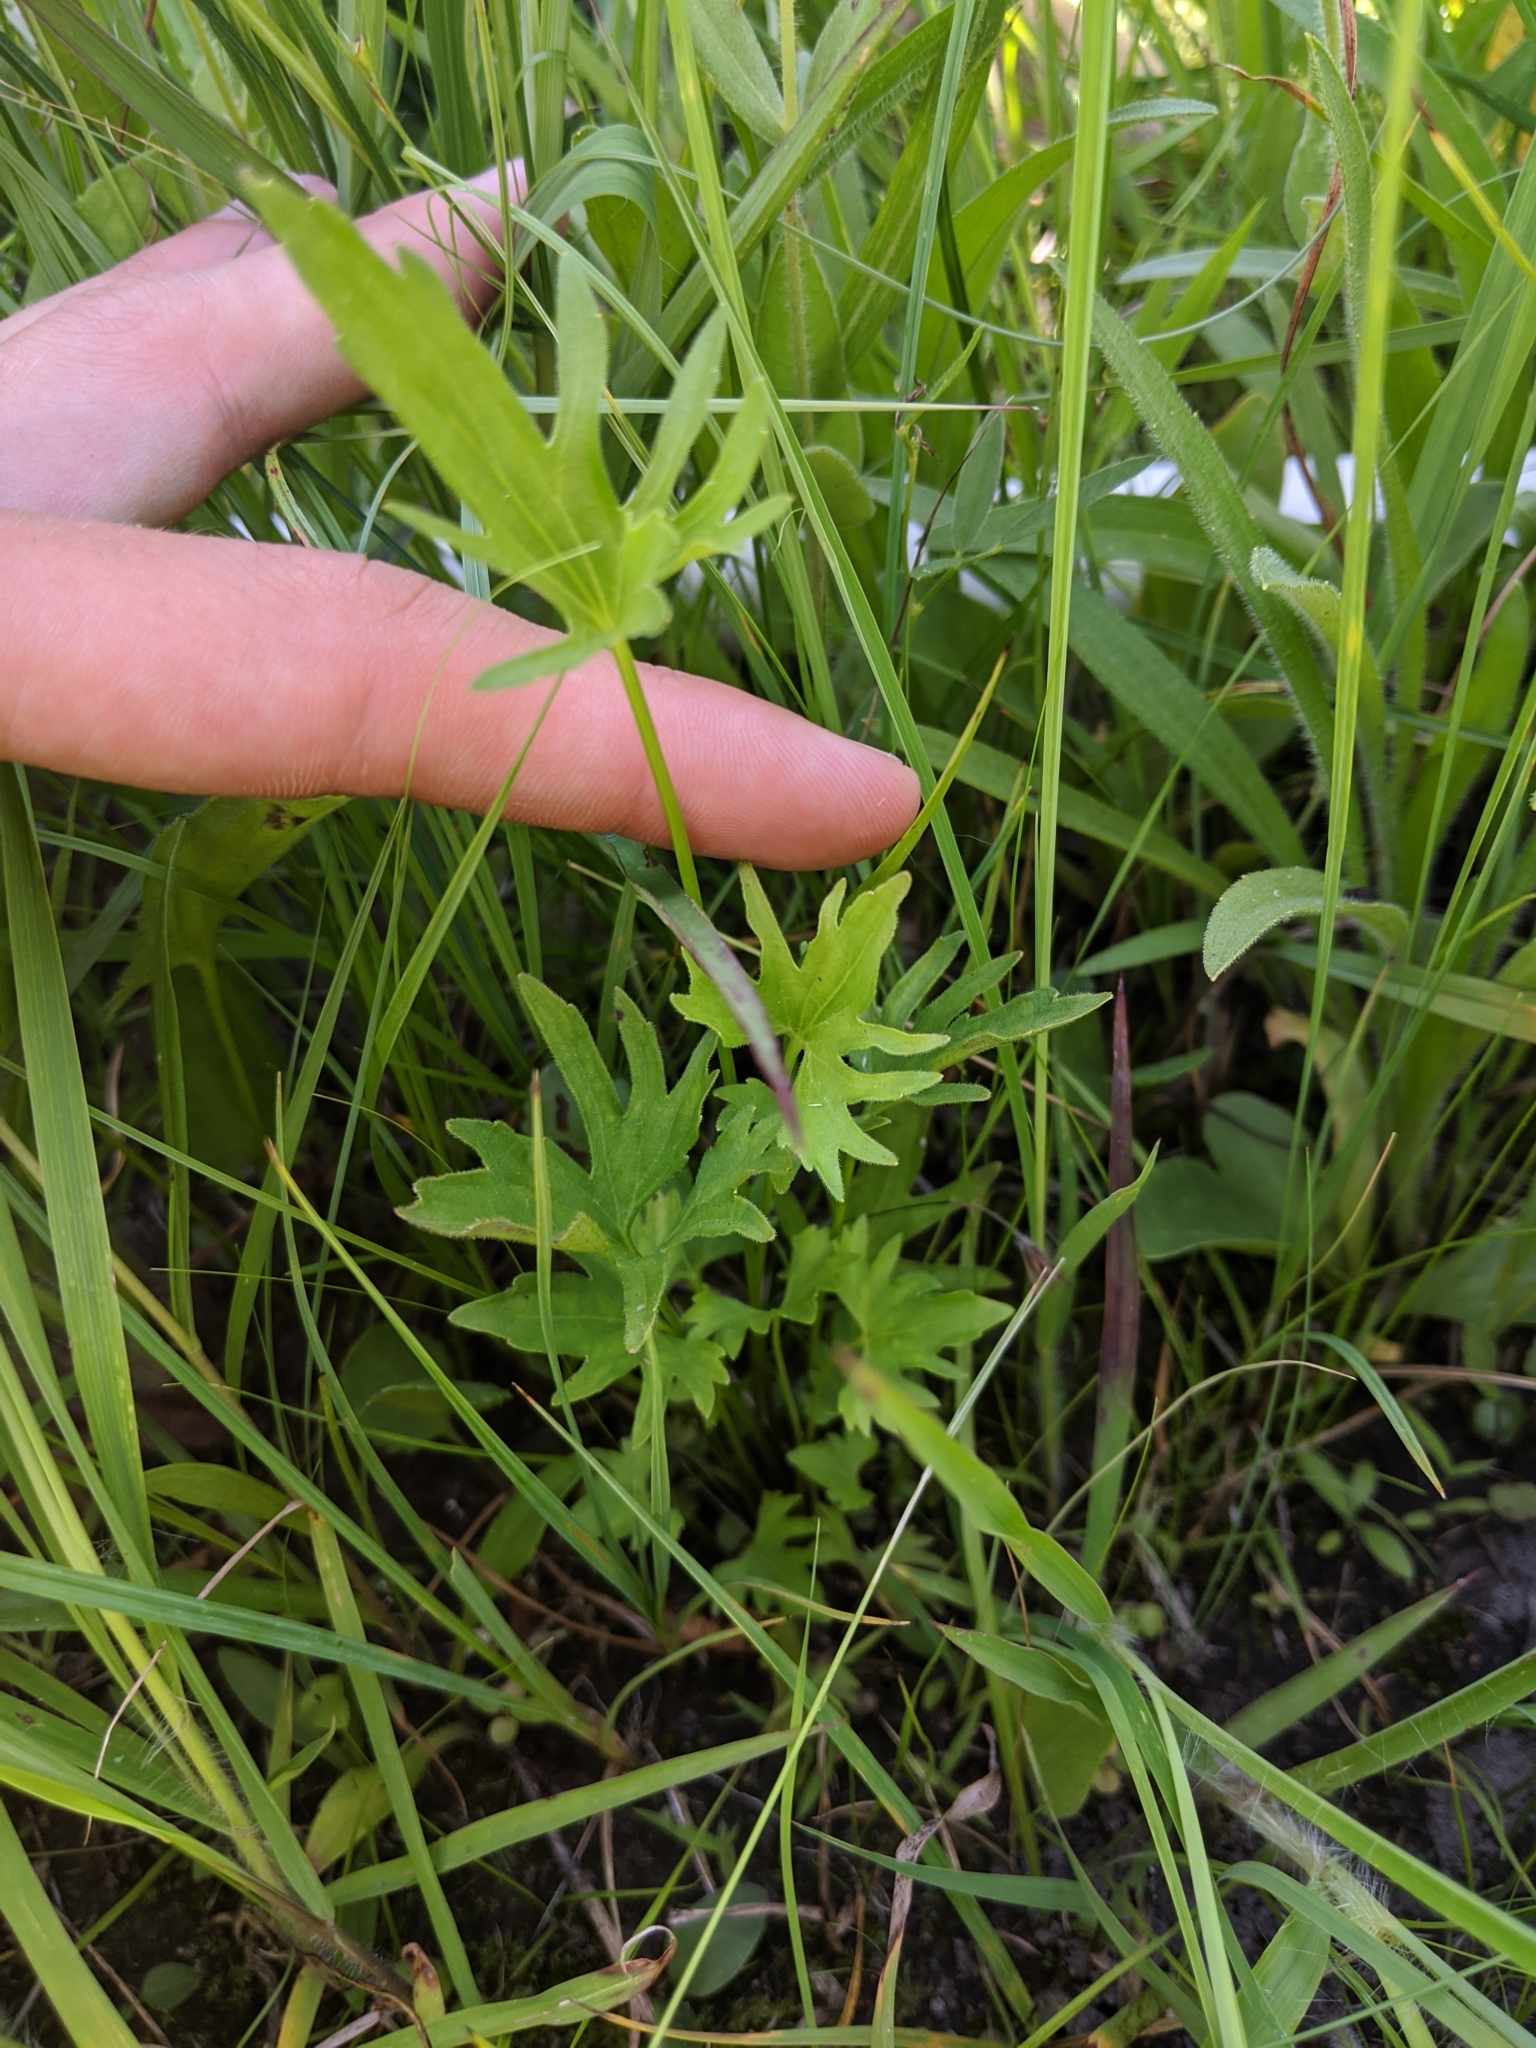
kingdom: Plantae
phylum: Tracheophyta
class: Magnoliopsida
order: Malpighiales
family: Violaceae
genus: Viola
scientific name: Viola pedatifida
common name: Prairie violet
